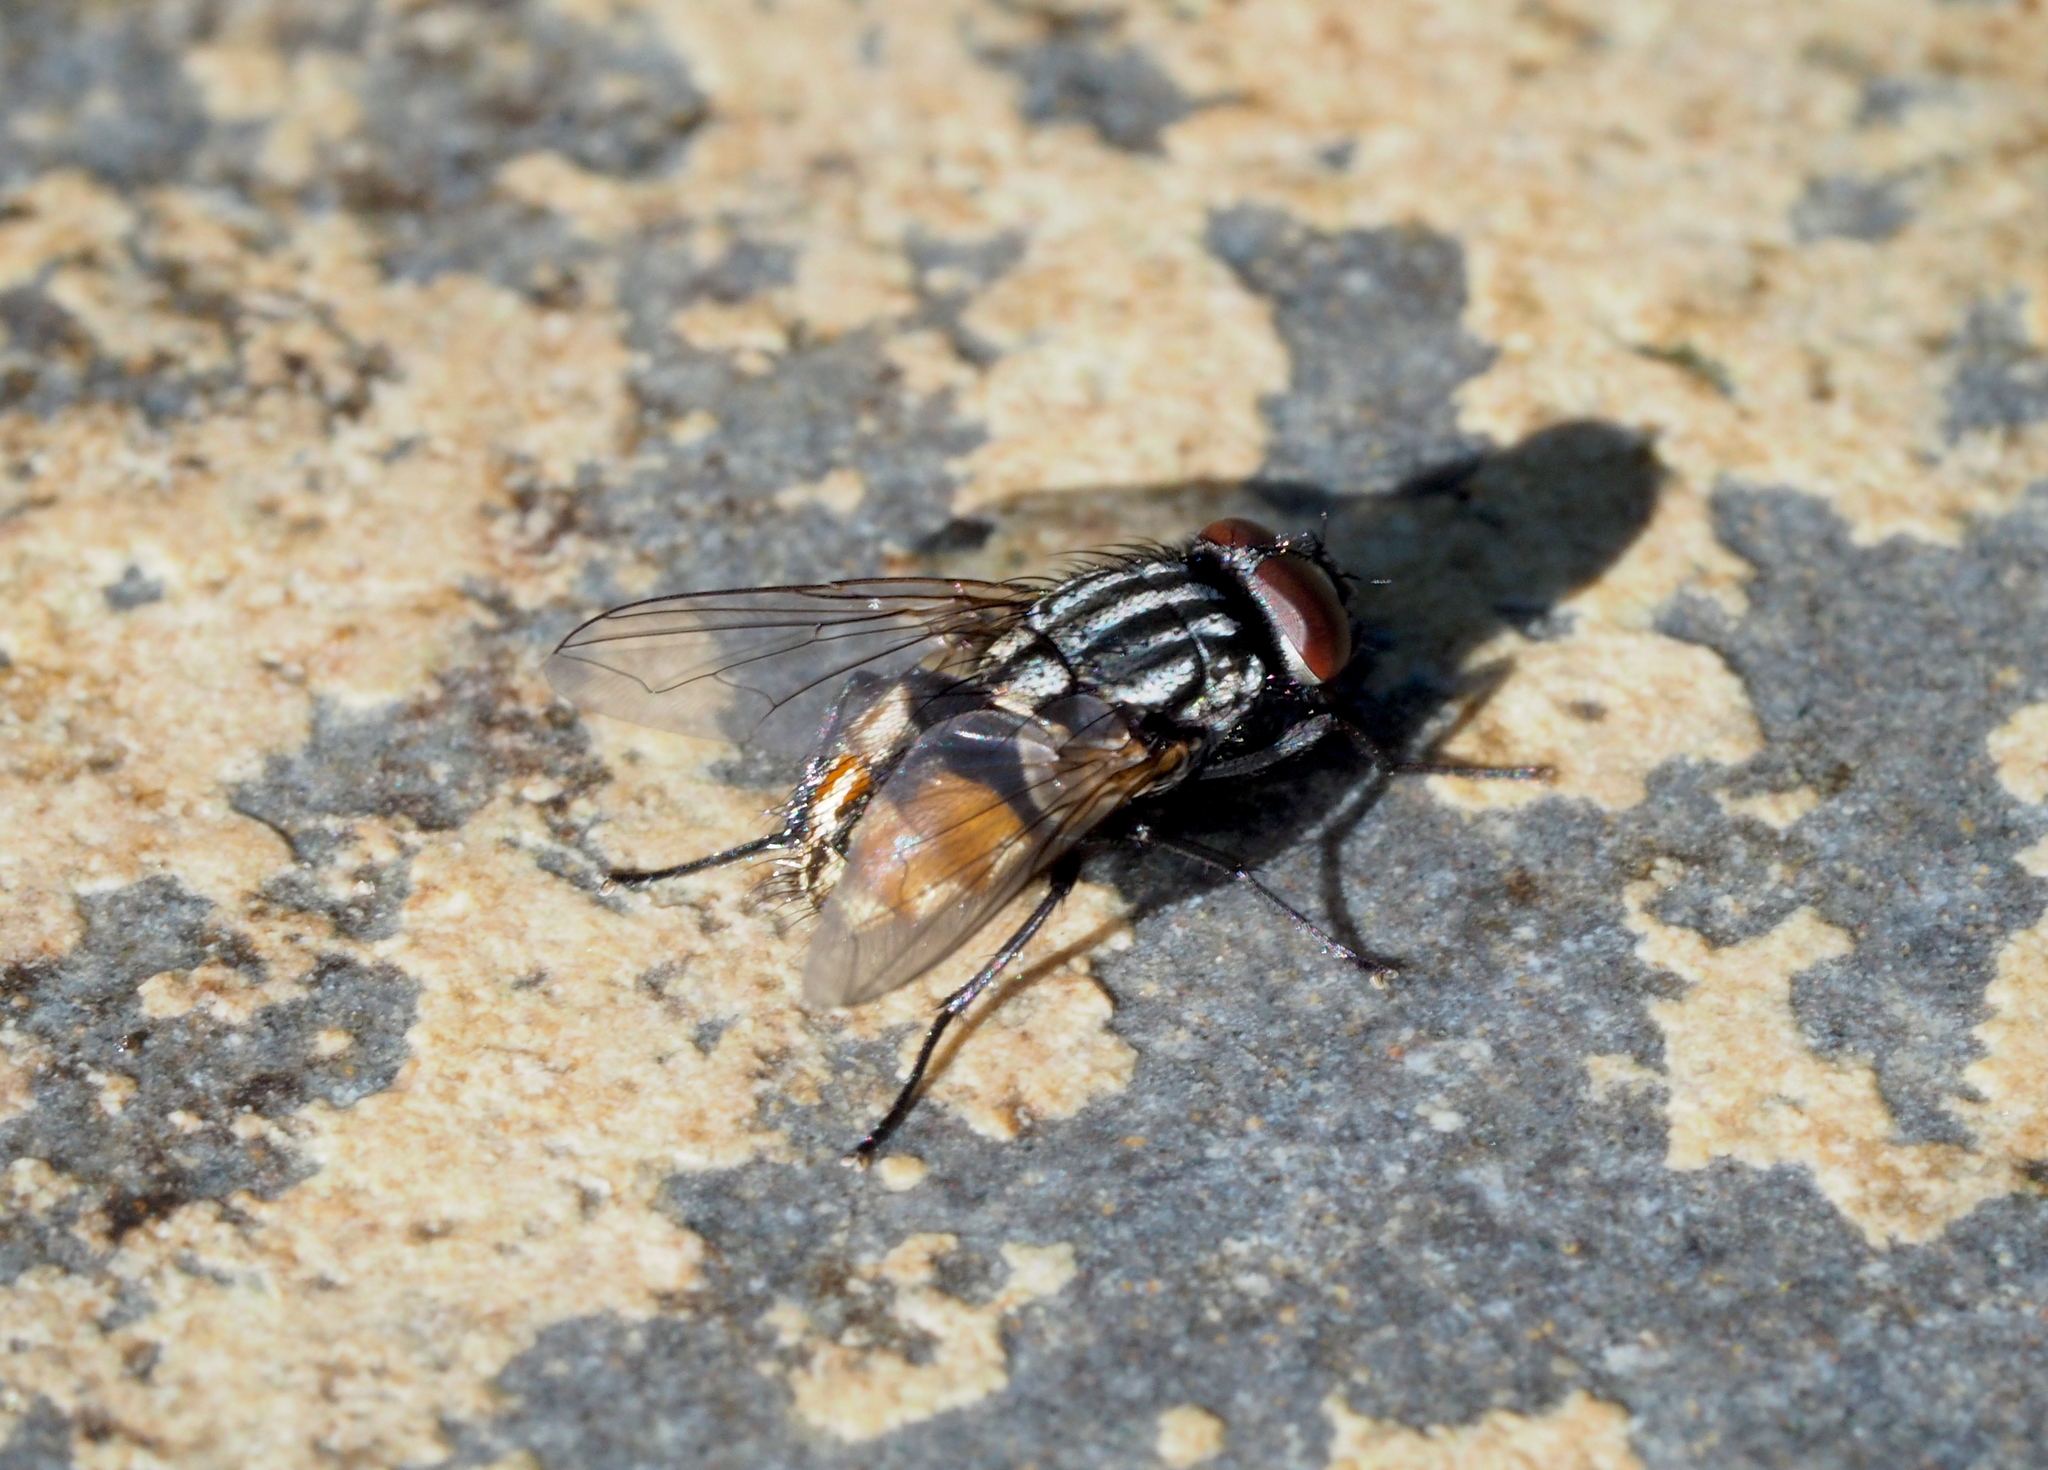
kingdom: Animalia
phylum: Arthropoda
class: Insecta
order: Diptera
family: Muscidae
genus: Musca
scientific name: Musca autumnalis
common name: Face fly
